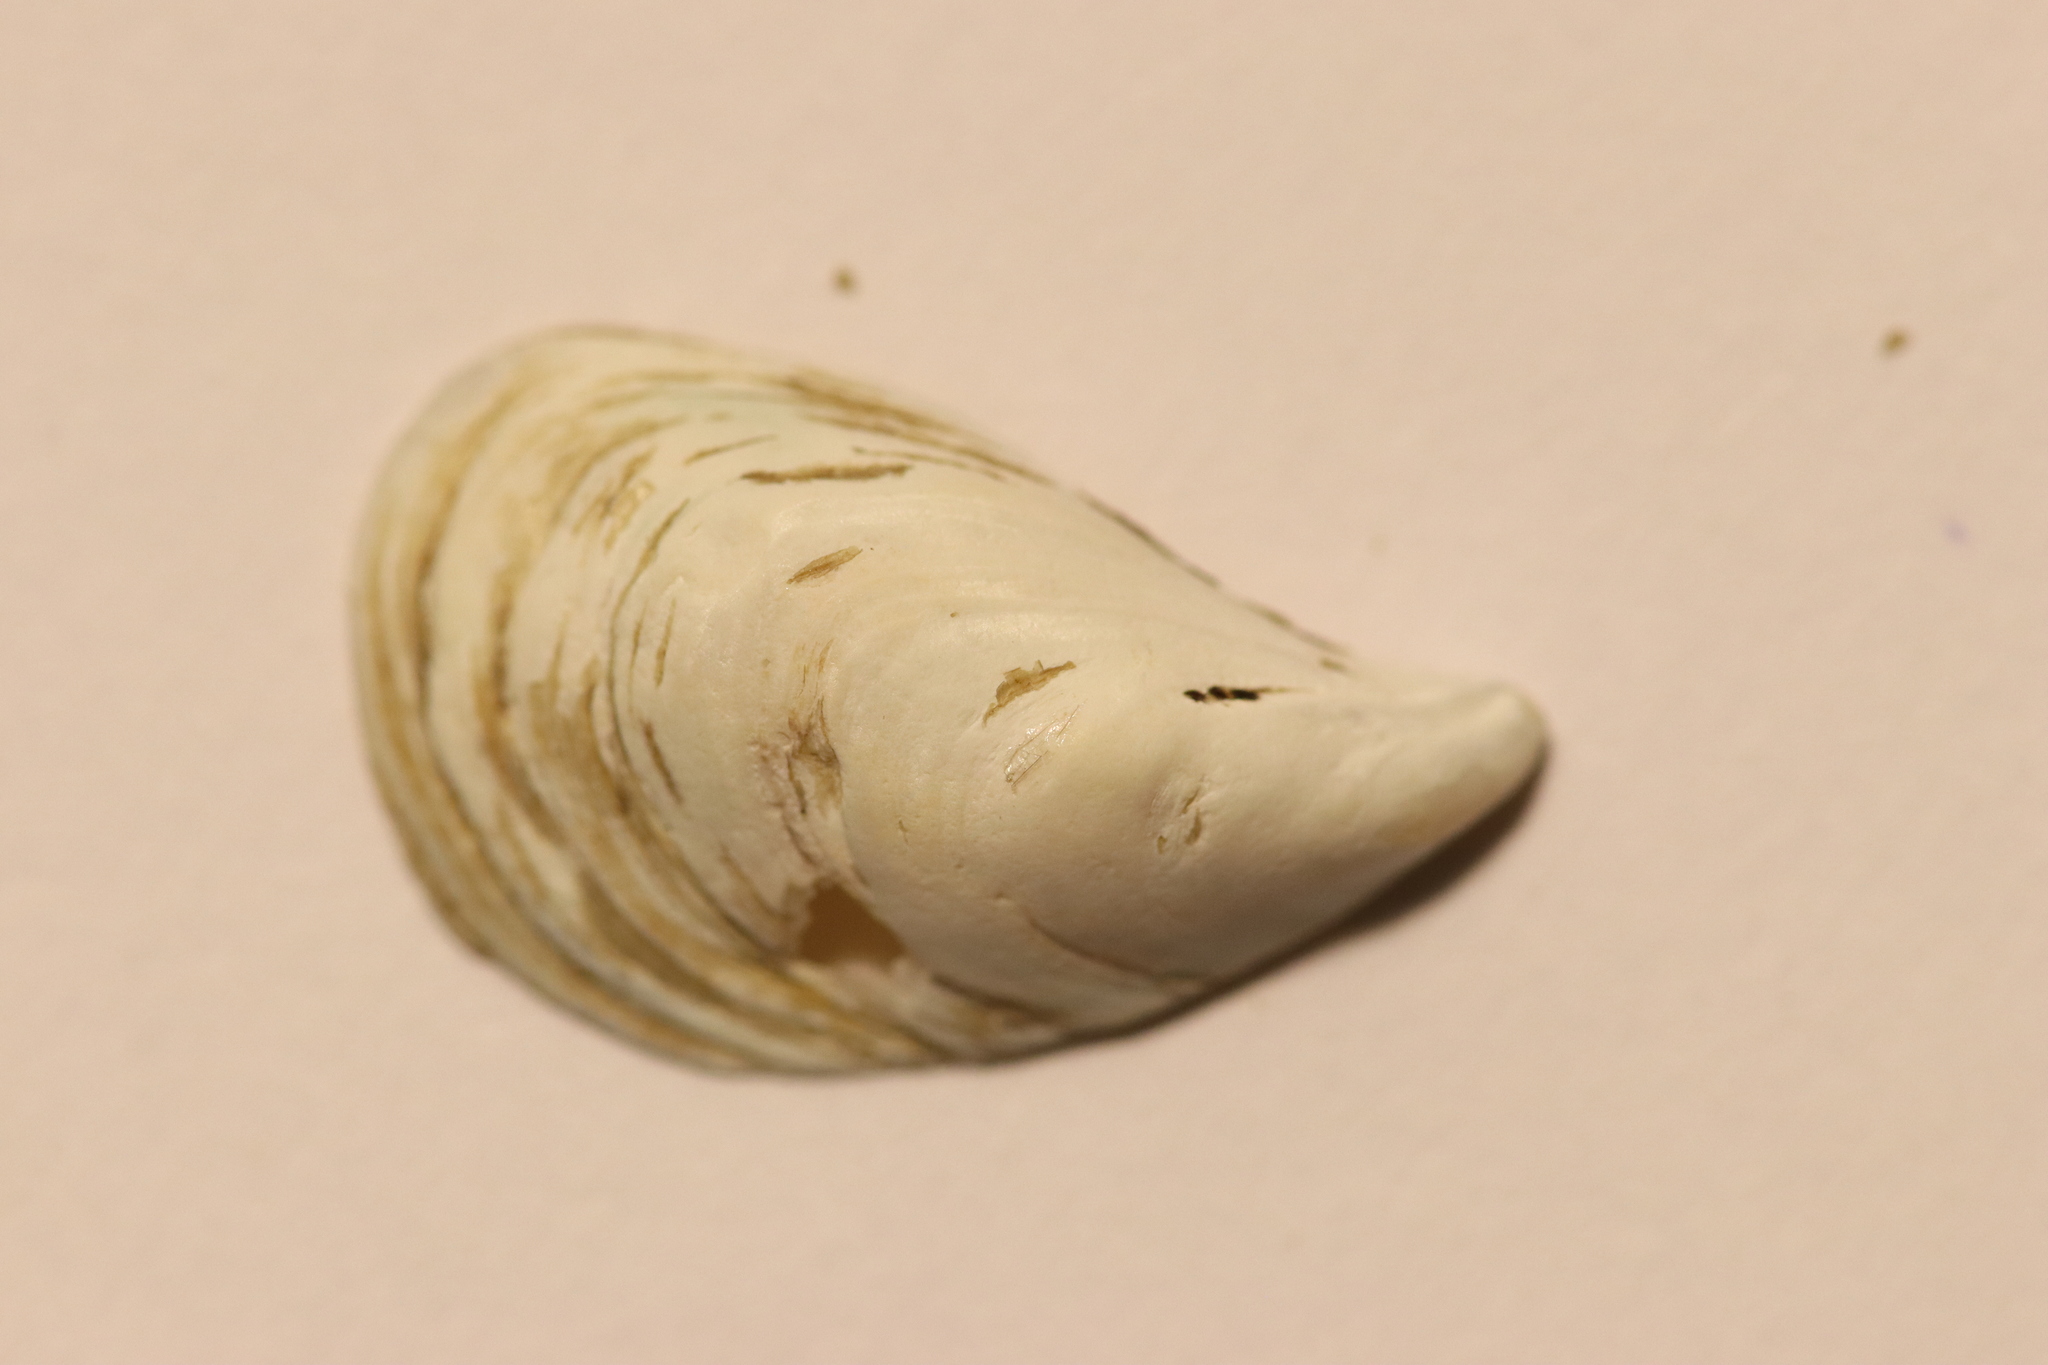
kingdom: Animalia
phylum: Mollusca
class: Bivalvia
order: Myida
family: Dreissenidae
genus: Dreissena
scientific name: Dreissena bugensis
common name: Quagga mussel
